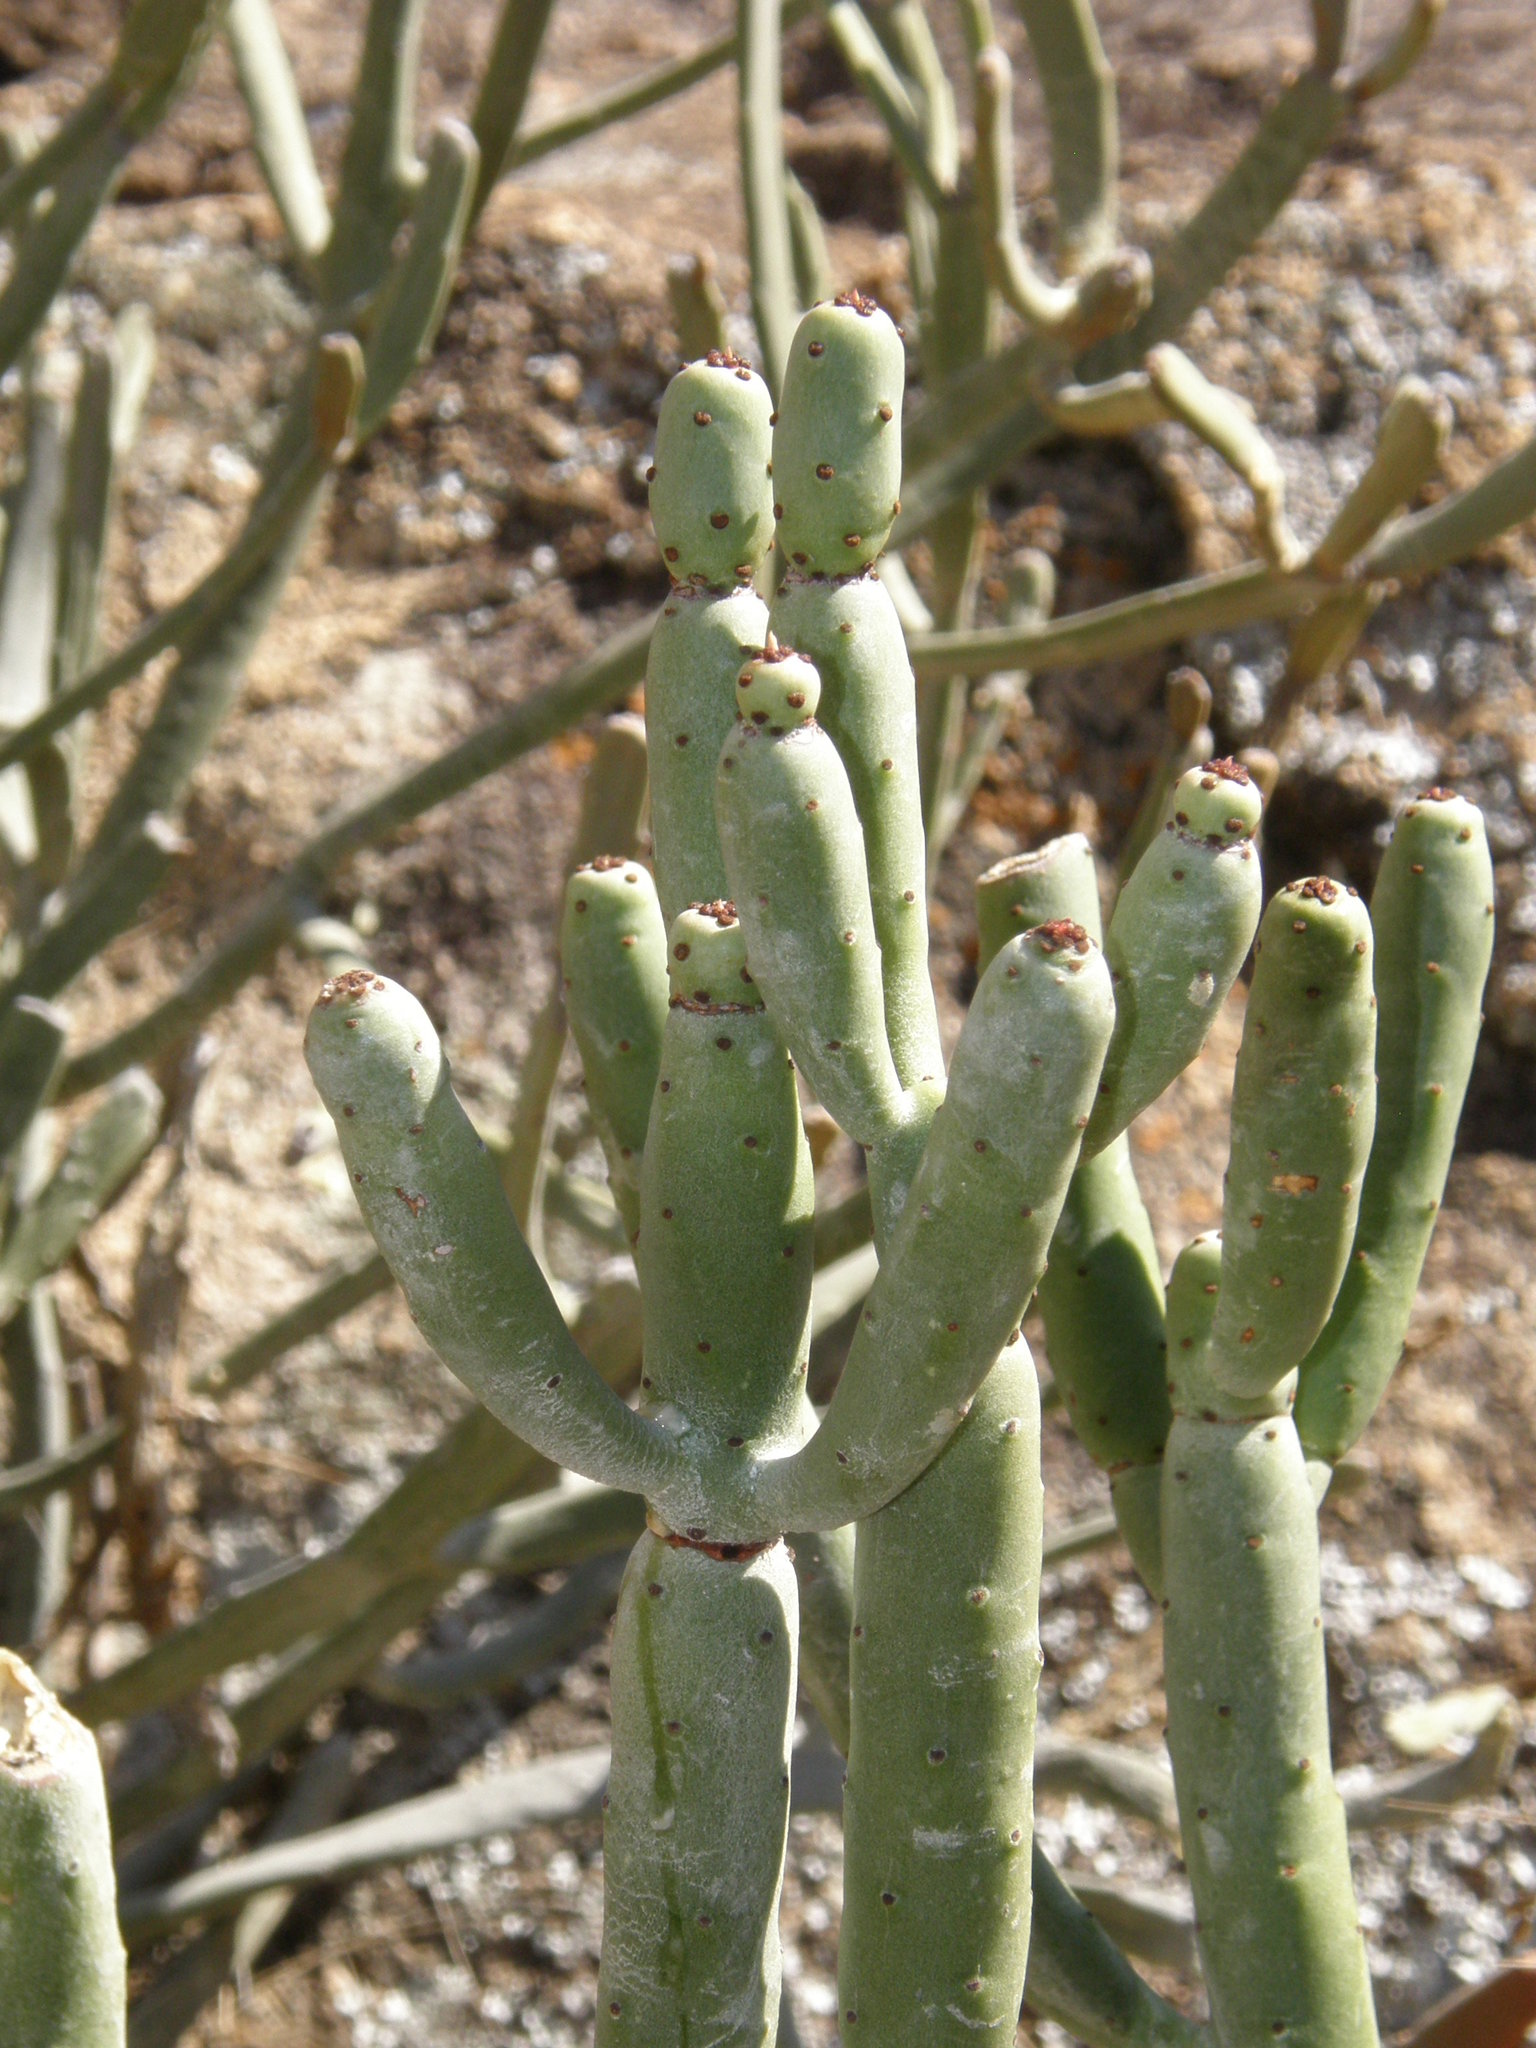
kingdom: Plantae
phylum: Tracheophyta
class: Magnoliopsida
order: Malpighiales
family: Euphorbiaceae
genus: Euphorbia
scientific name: Euphorbia alluaudii
